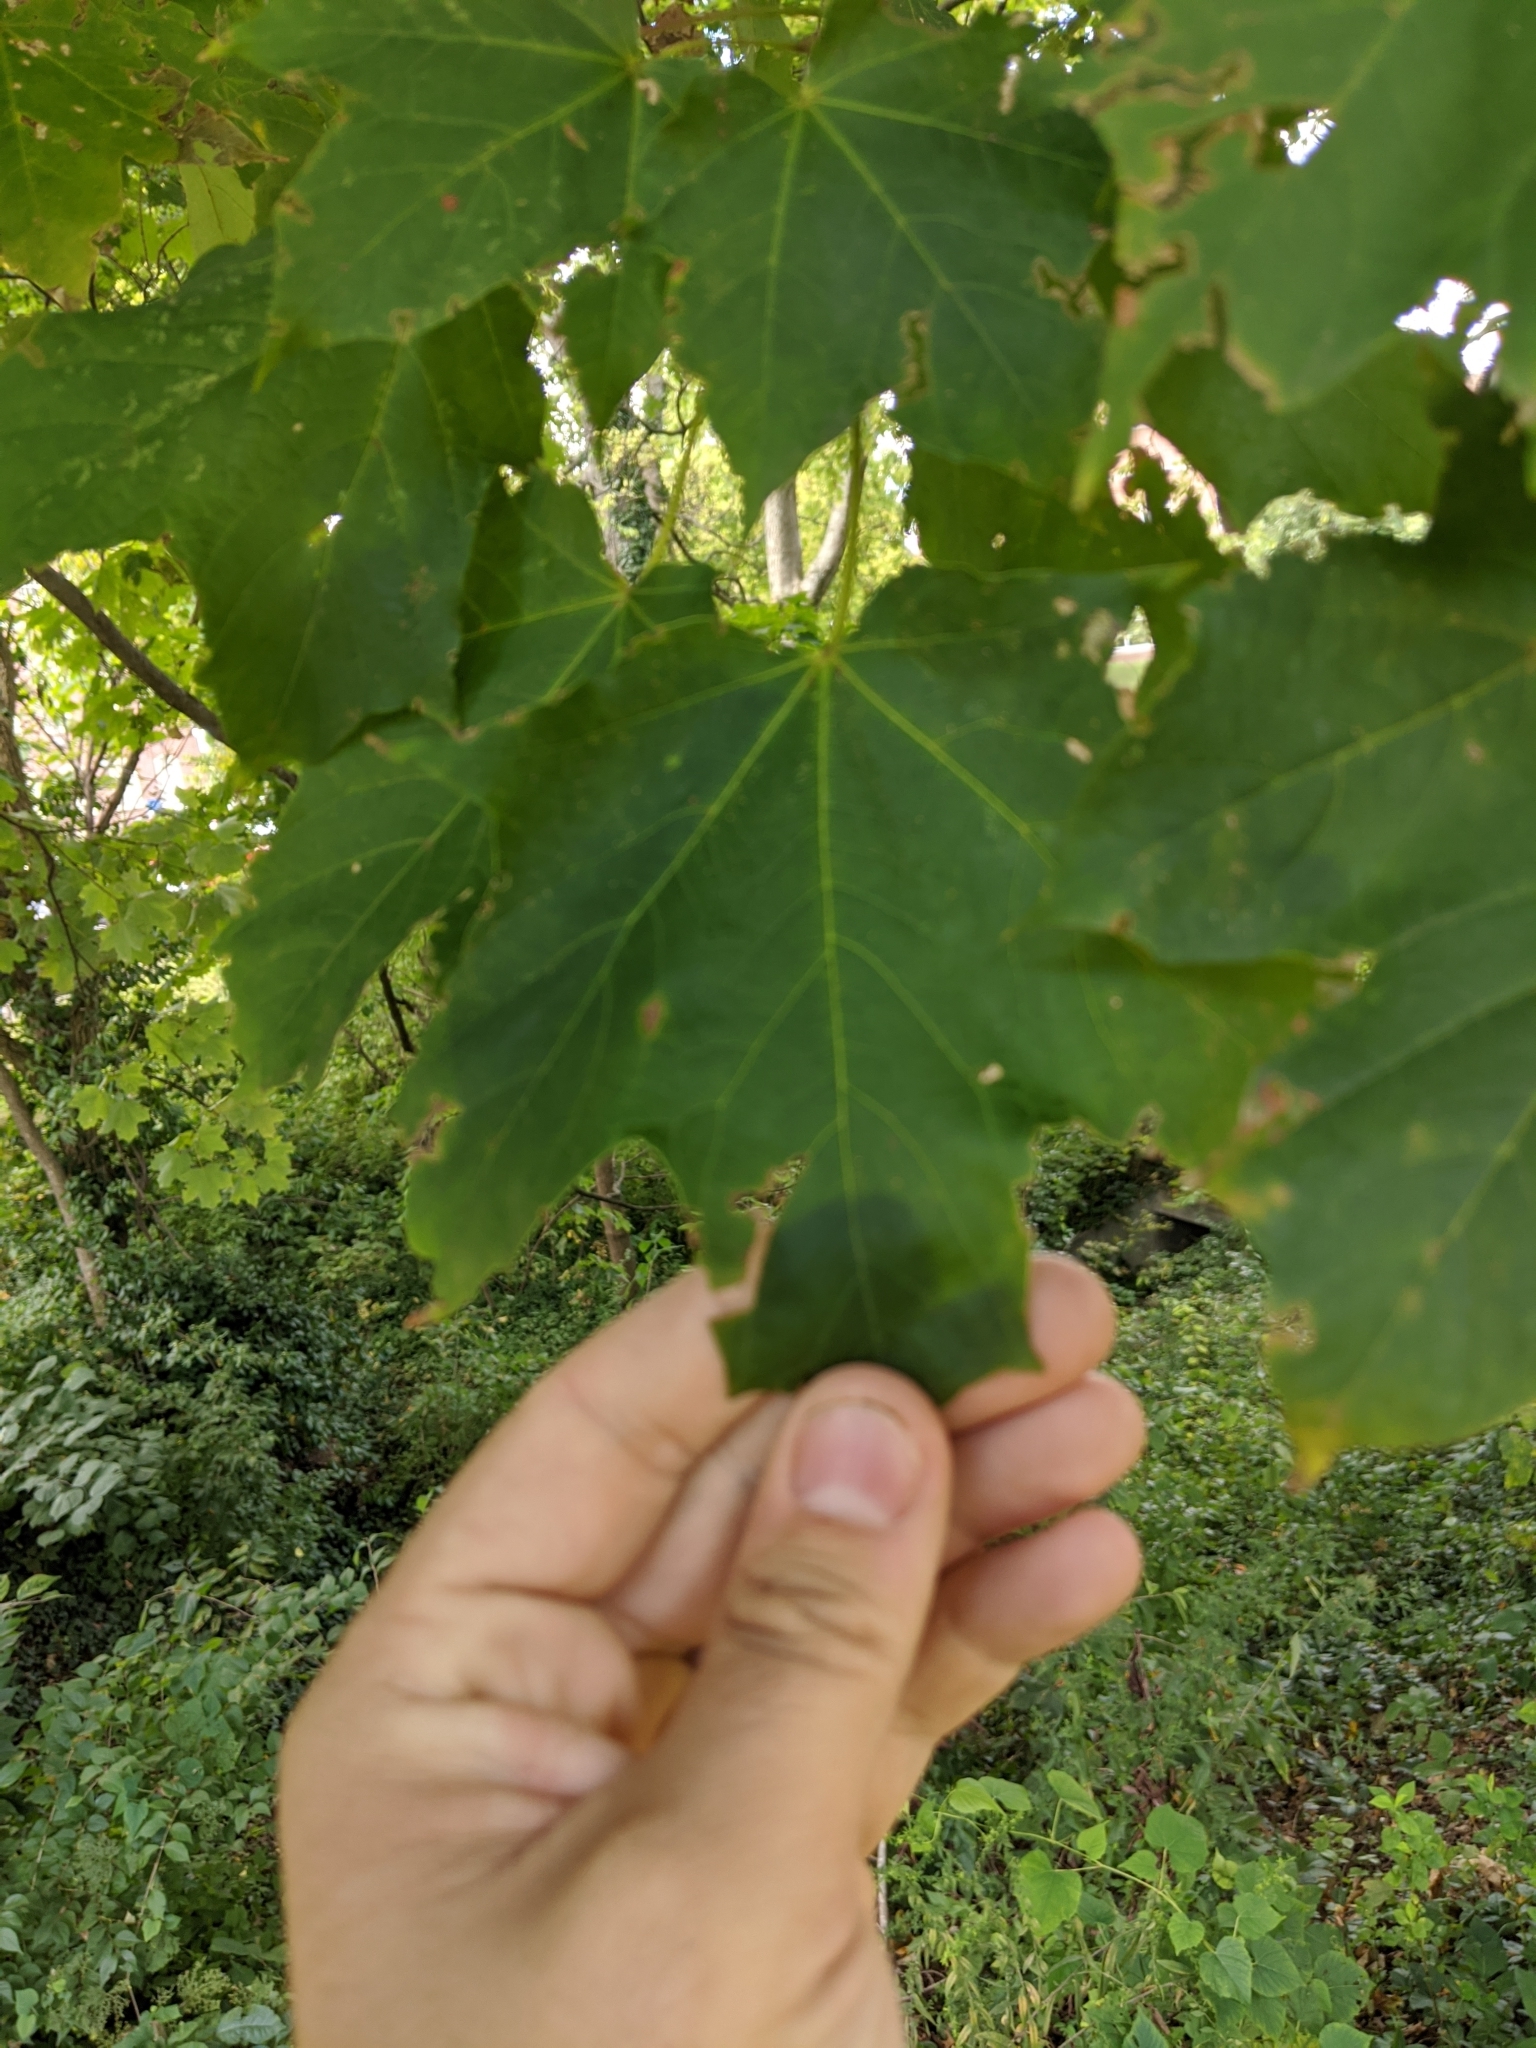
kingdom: Plantae
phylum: Tracheophyta
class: Magnoliopsida
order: Sapindales
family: Sapindaceae
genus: Acer
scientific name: Acer saccharum
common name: Sugar maple
